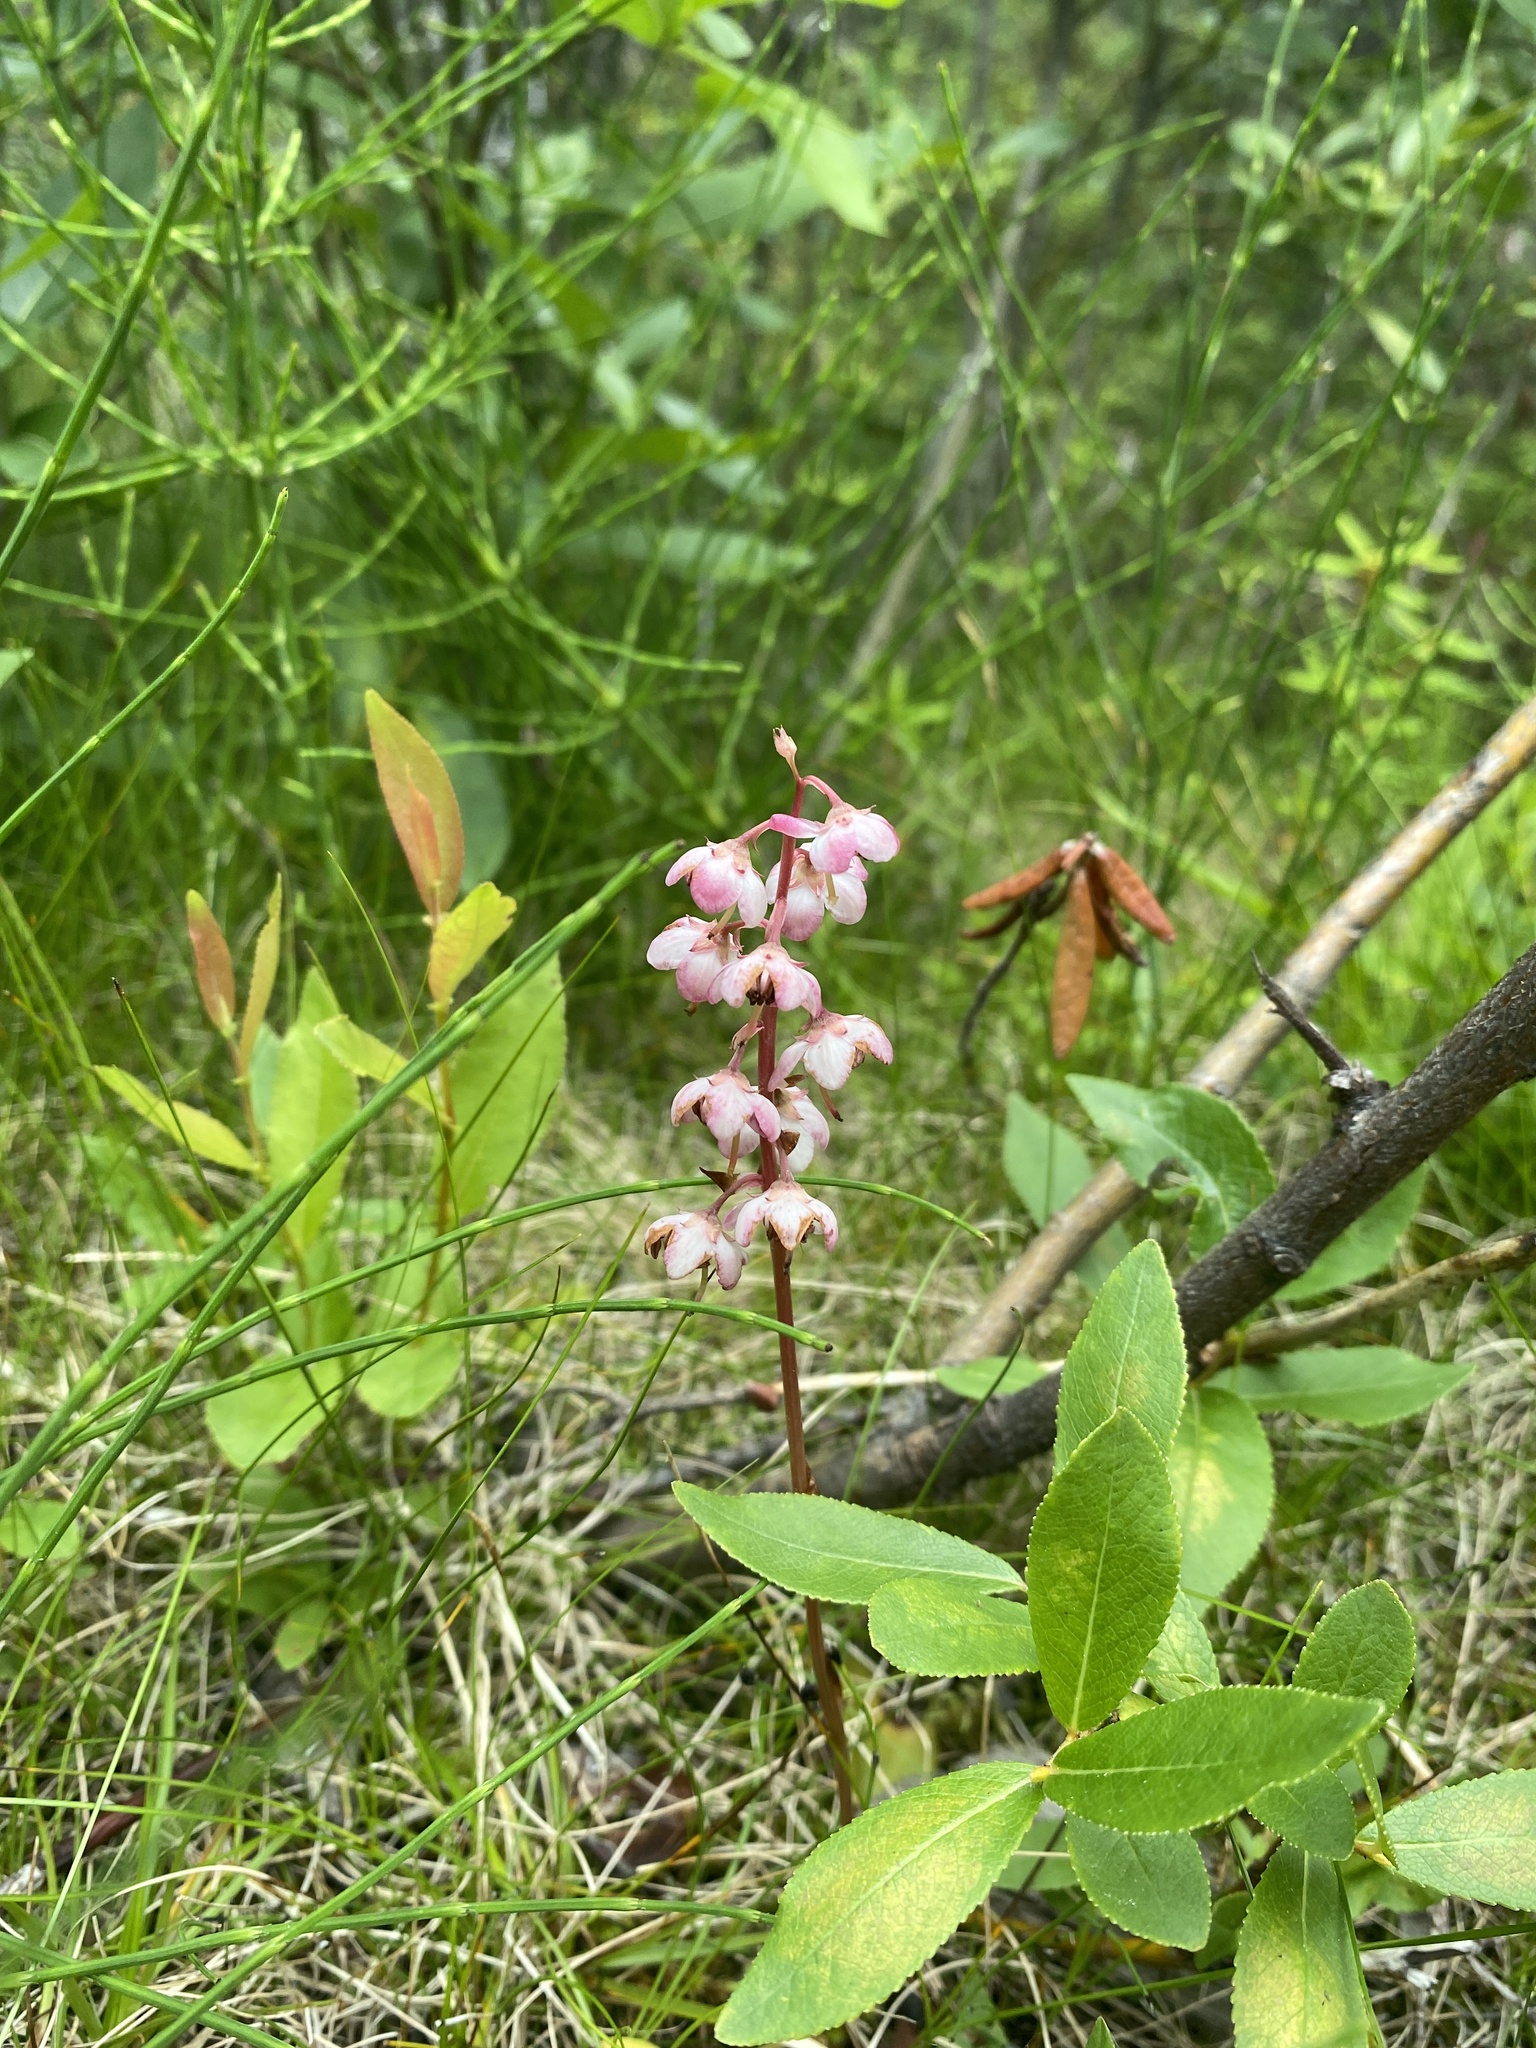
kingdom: Plantae
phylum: Tracheophyta
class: Magnoliopsida
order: Ericales
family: Ericaceae
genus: Pyrola
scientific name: Pyrola asarifolia
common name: Bog wintergreen
